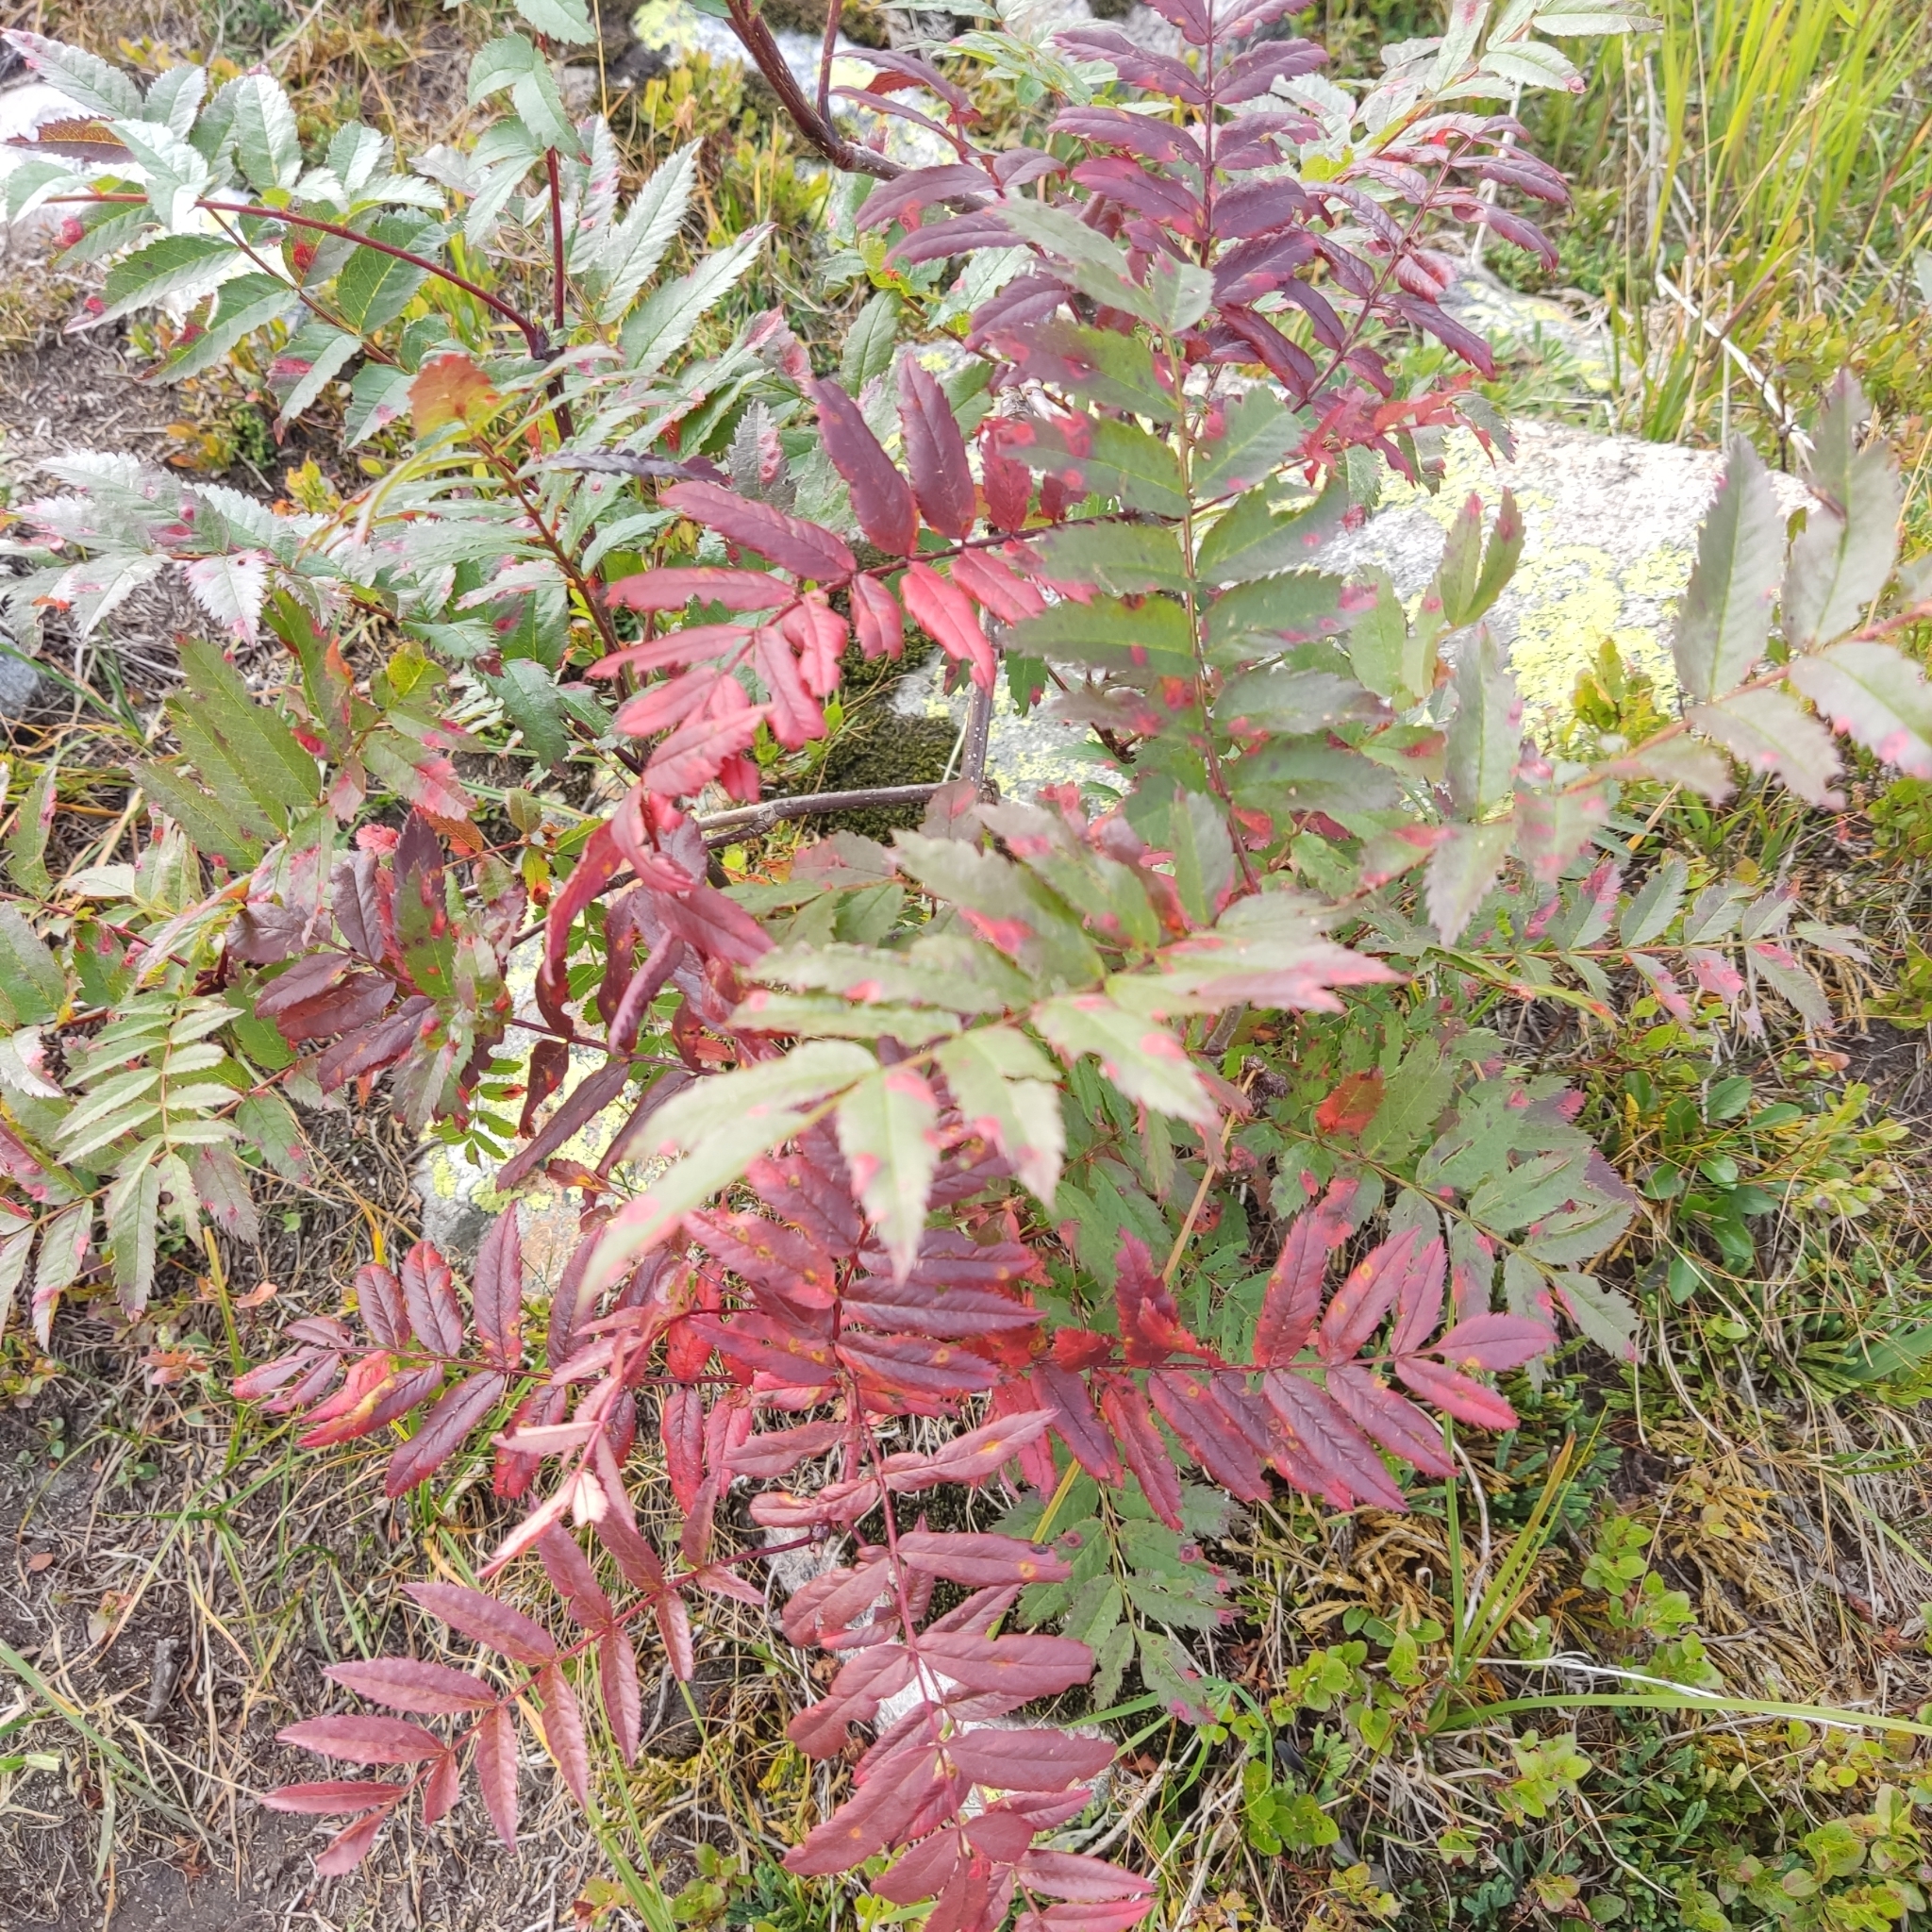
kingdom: Plantae
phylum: Tracheophyta
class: Magnoliopsida
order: Rosales
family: Rosaceae
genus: Sorbus
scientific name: Sorbus aucuparia
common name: Rowan
